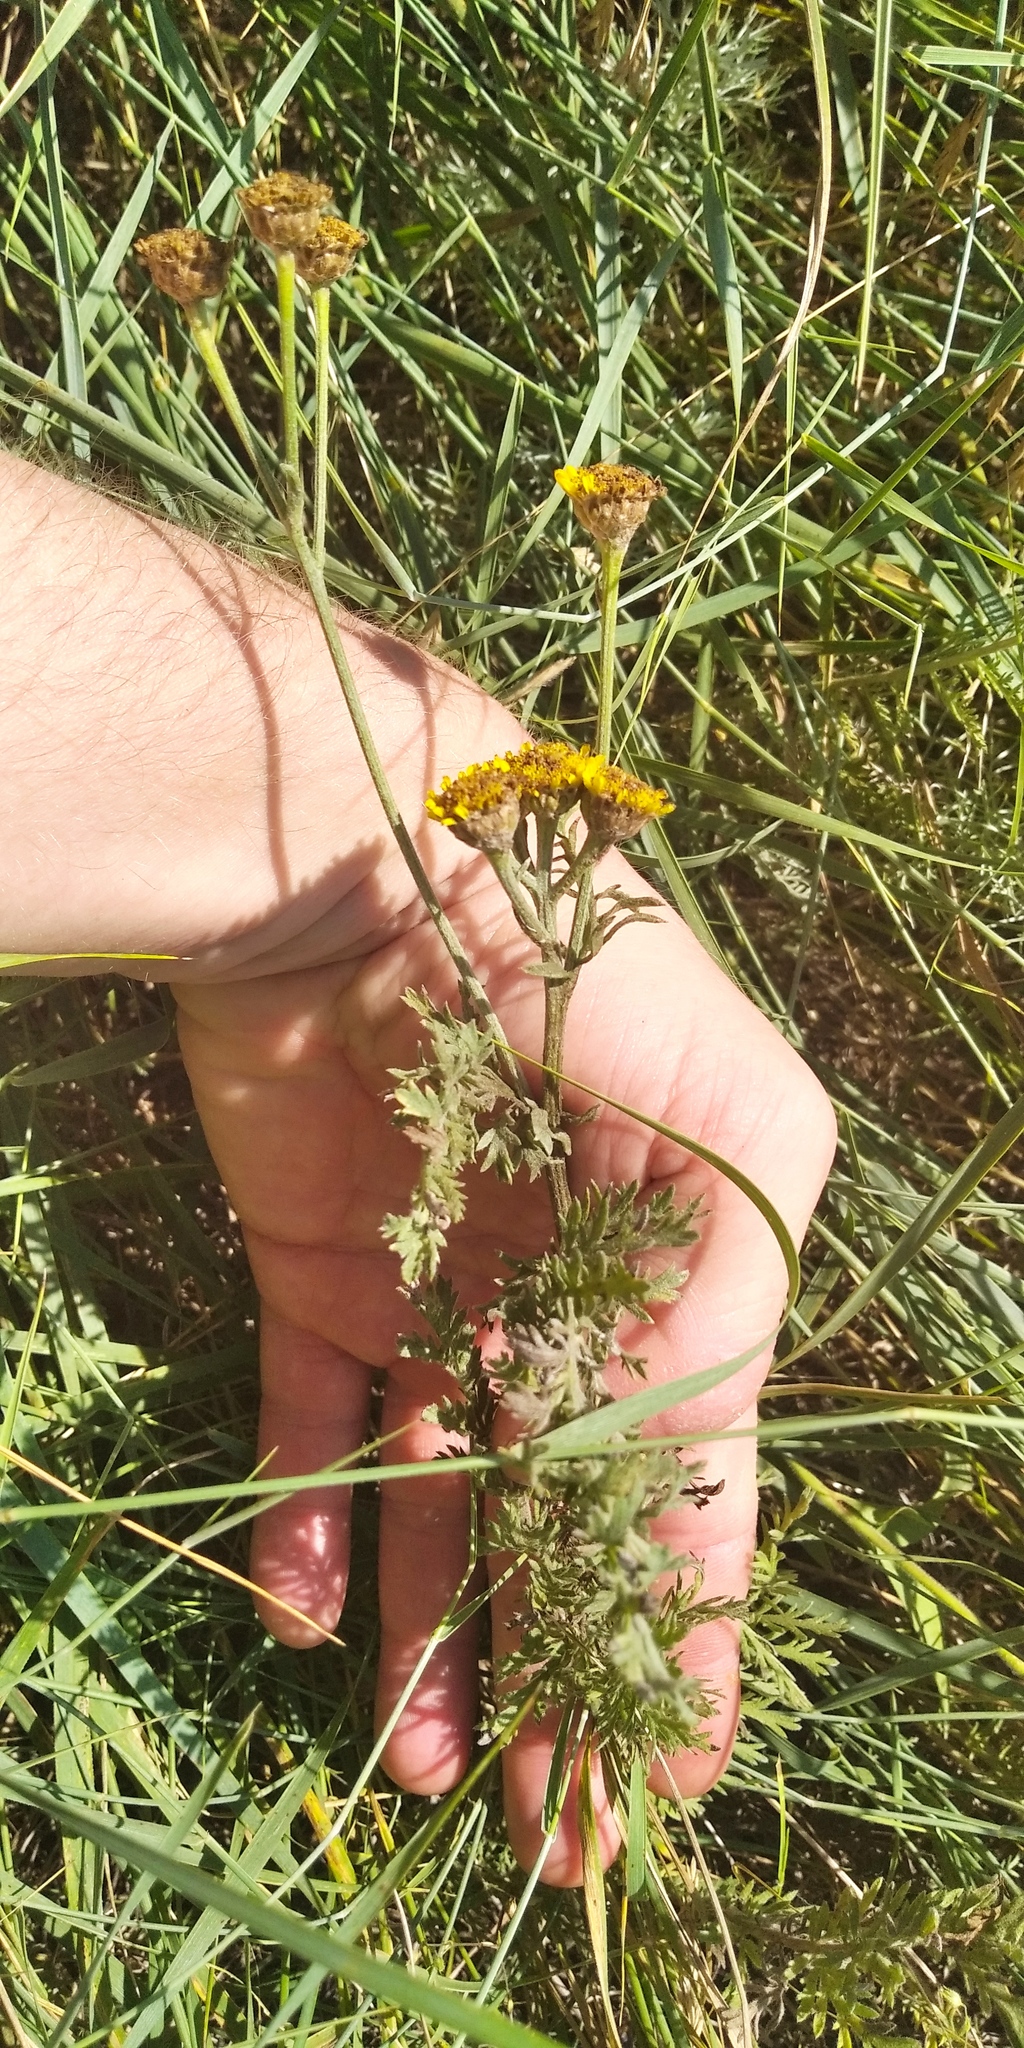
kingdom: Plantae
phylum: Tracheophyta
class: Magnoliopsida
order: Asterales
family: Asteraceae
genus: Tanacetum
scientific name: Tanacetum millefolium
